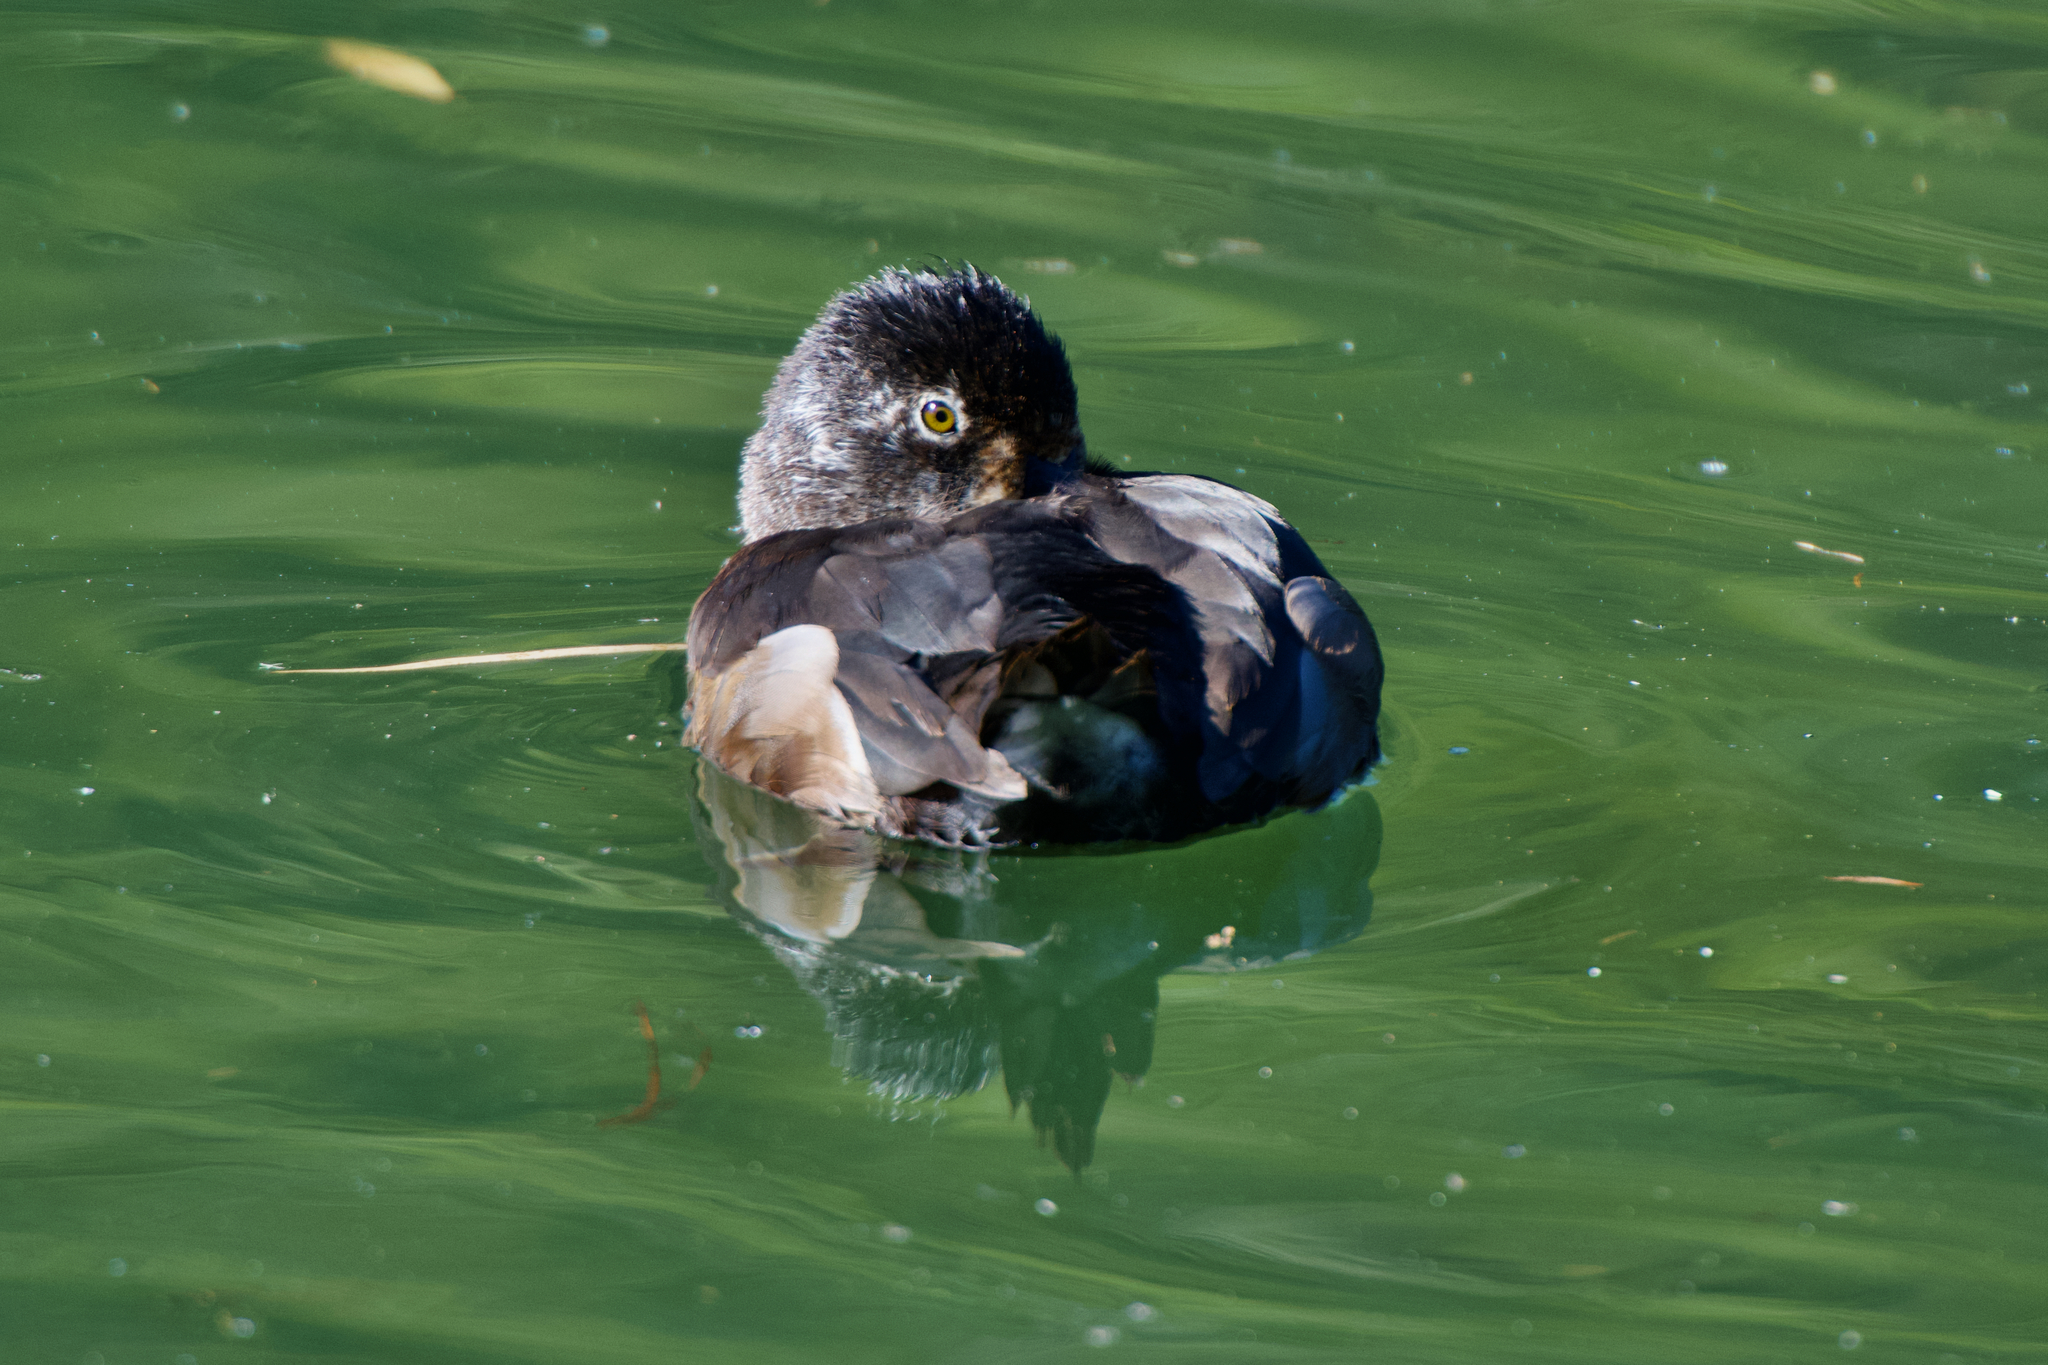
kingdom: Animalia
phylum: Chordata
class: Aves
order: Anseriformes
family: Anatidae
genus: Aythya
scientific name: Aythya collaris
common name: Ring-necked duck
